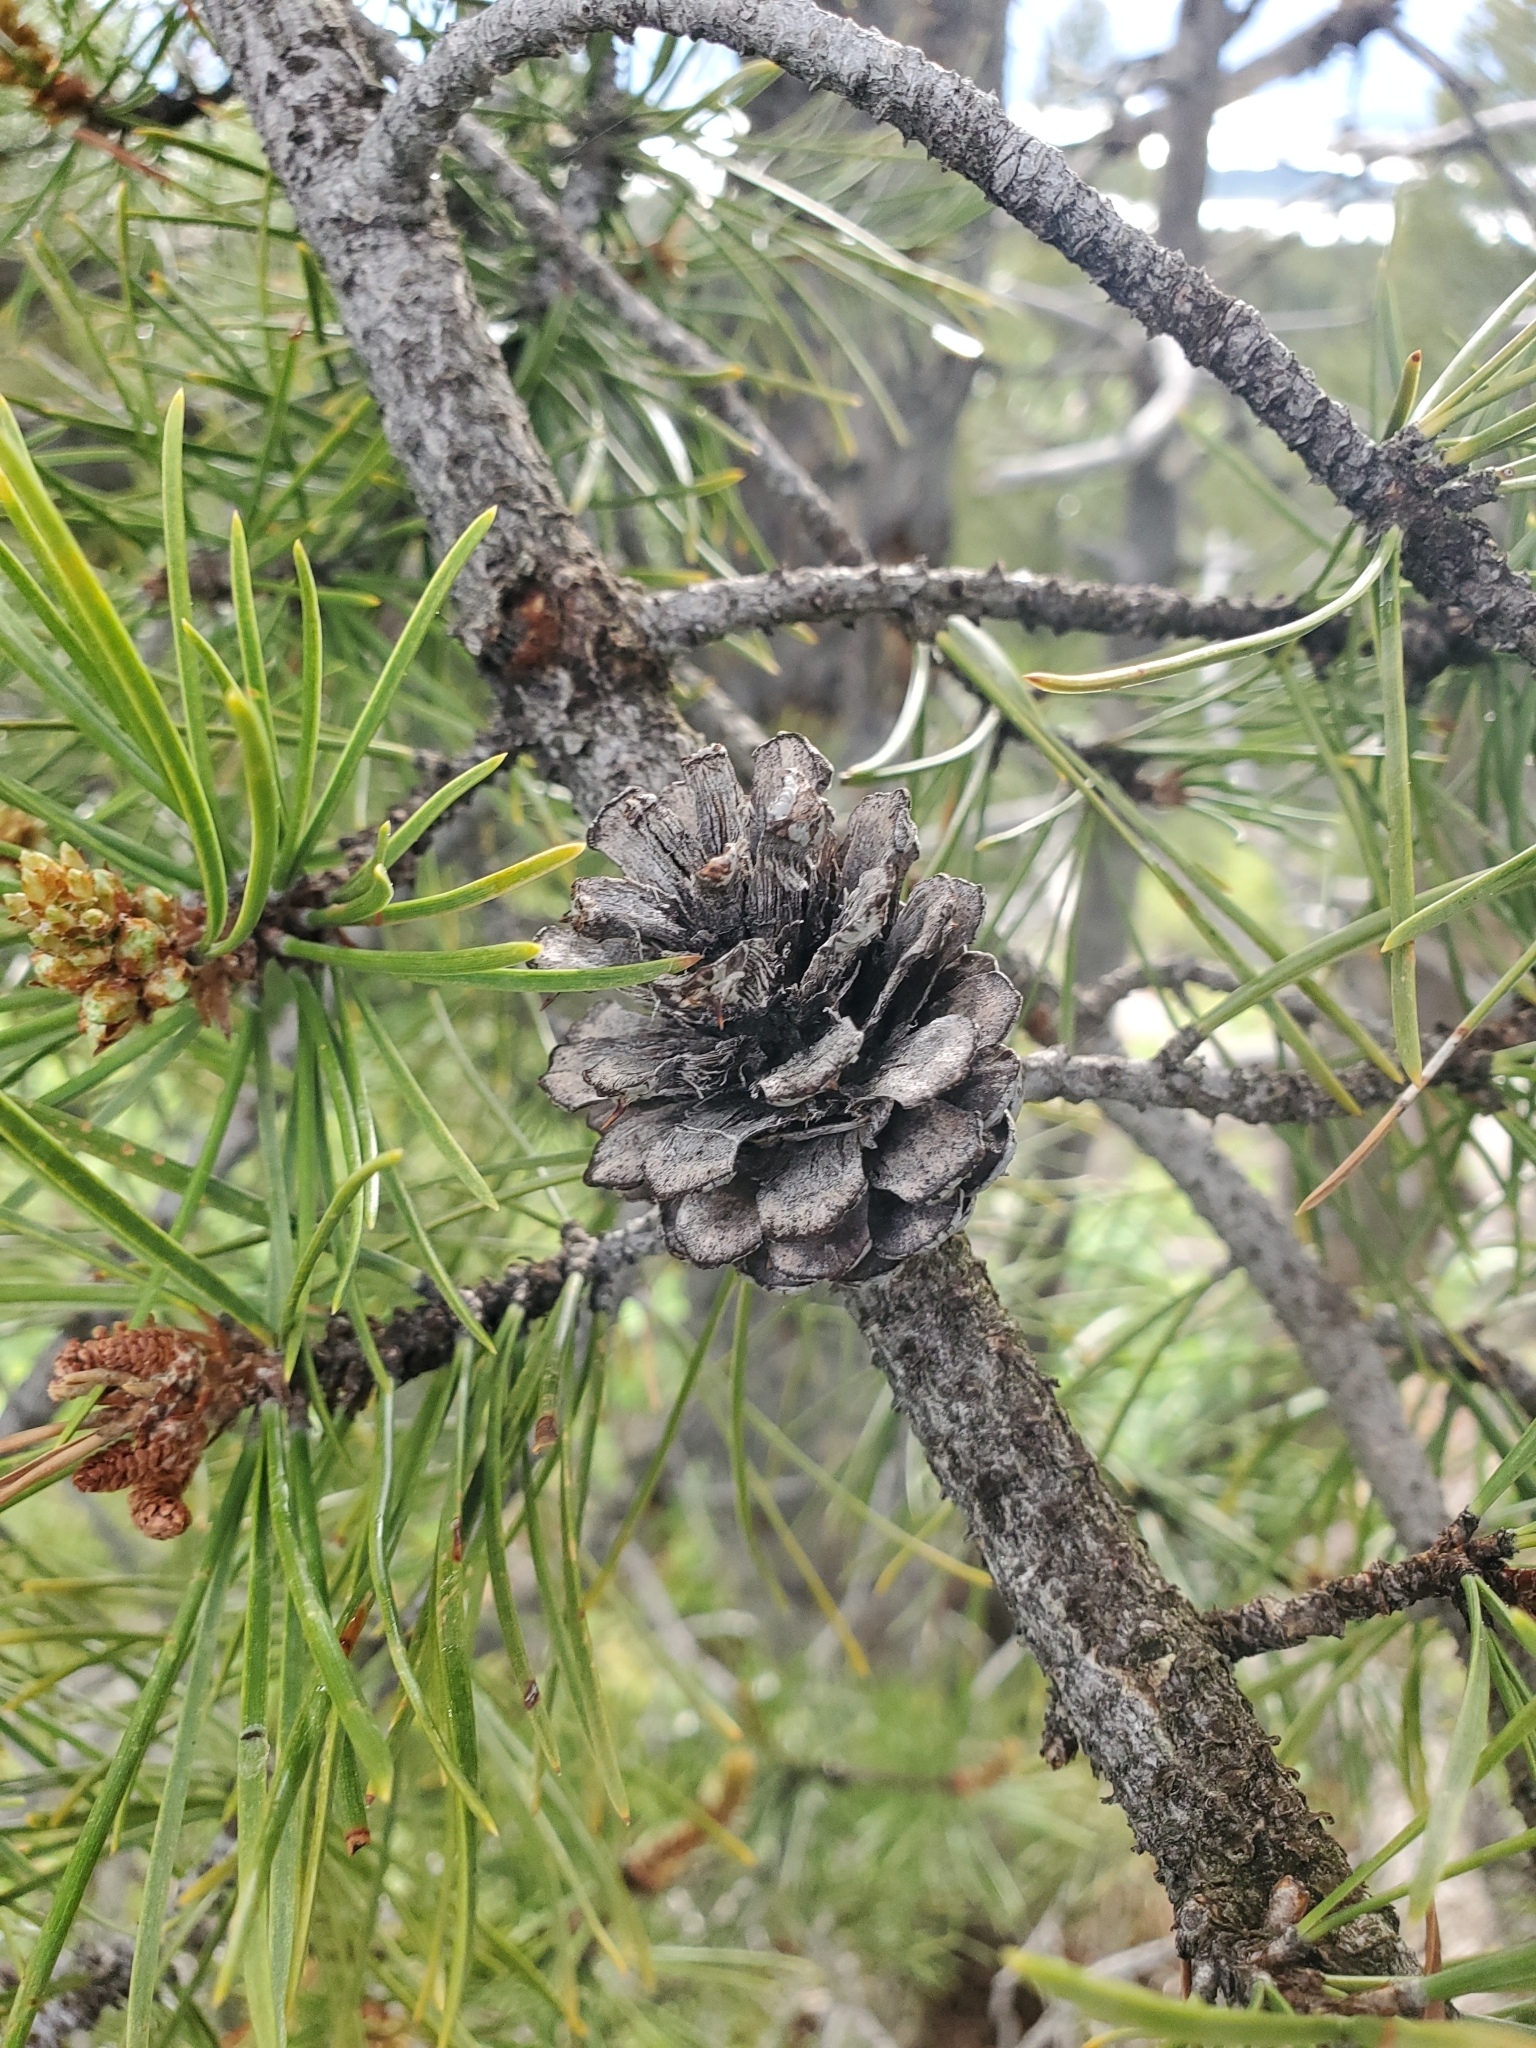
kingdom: Plantae
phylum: Tracheophyta
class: Pinopsida
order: Pinales
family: Pinaceae
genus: Pinus
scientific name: Pinus contorta
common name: Lodgepole pine
